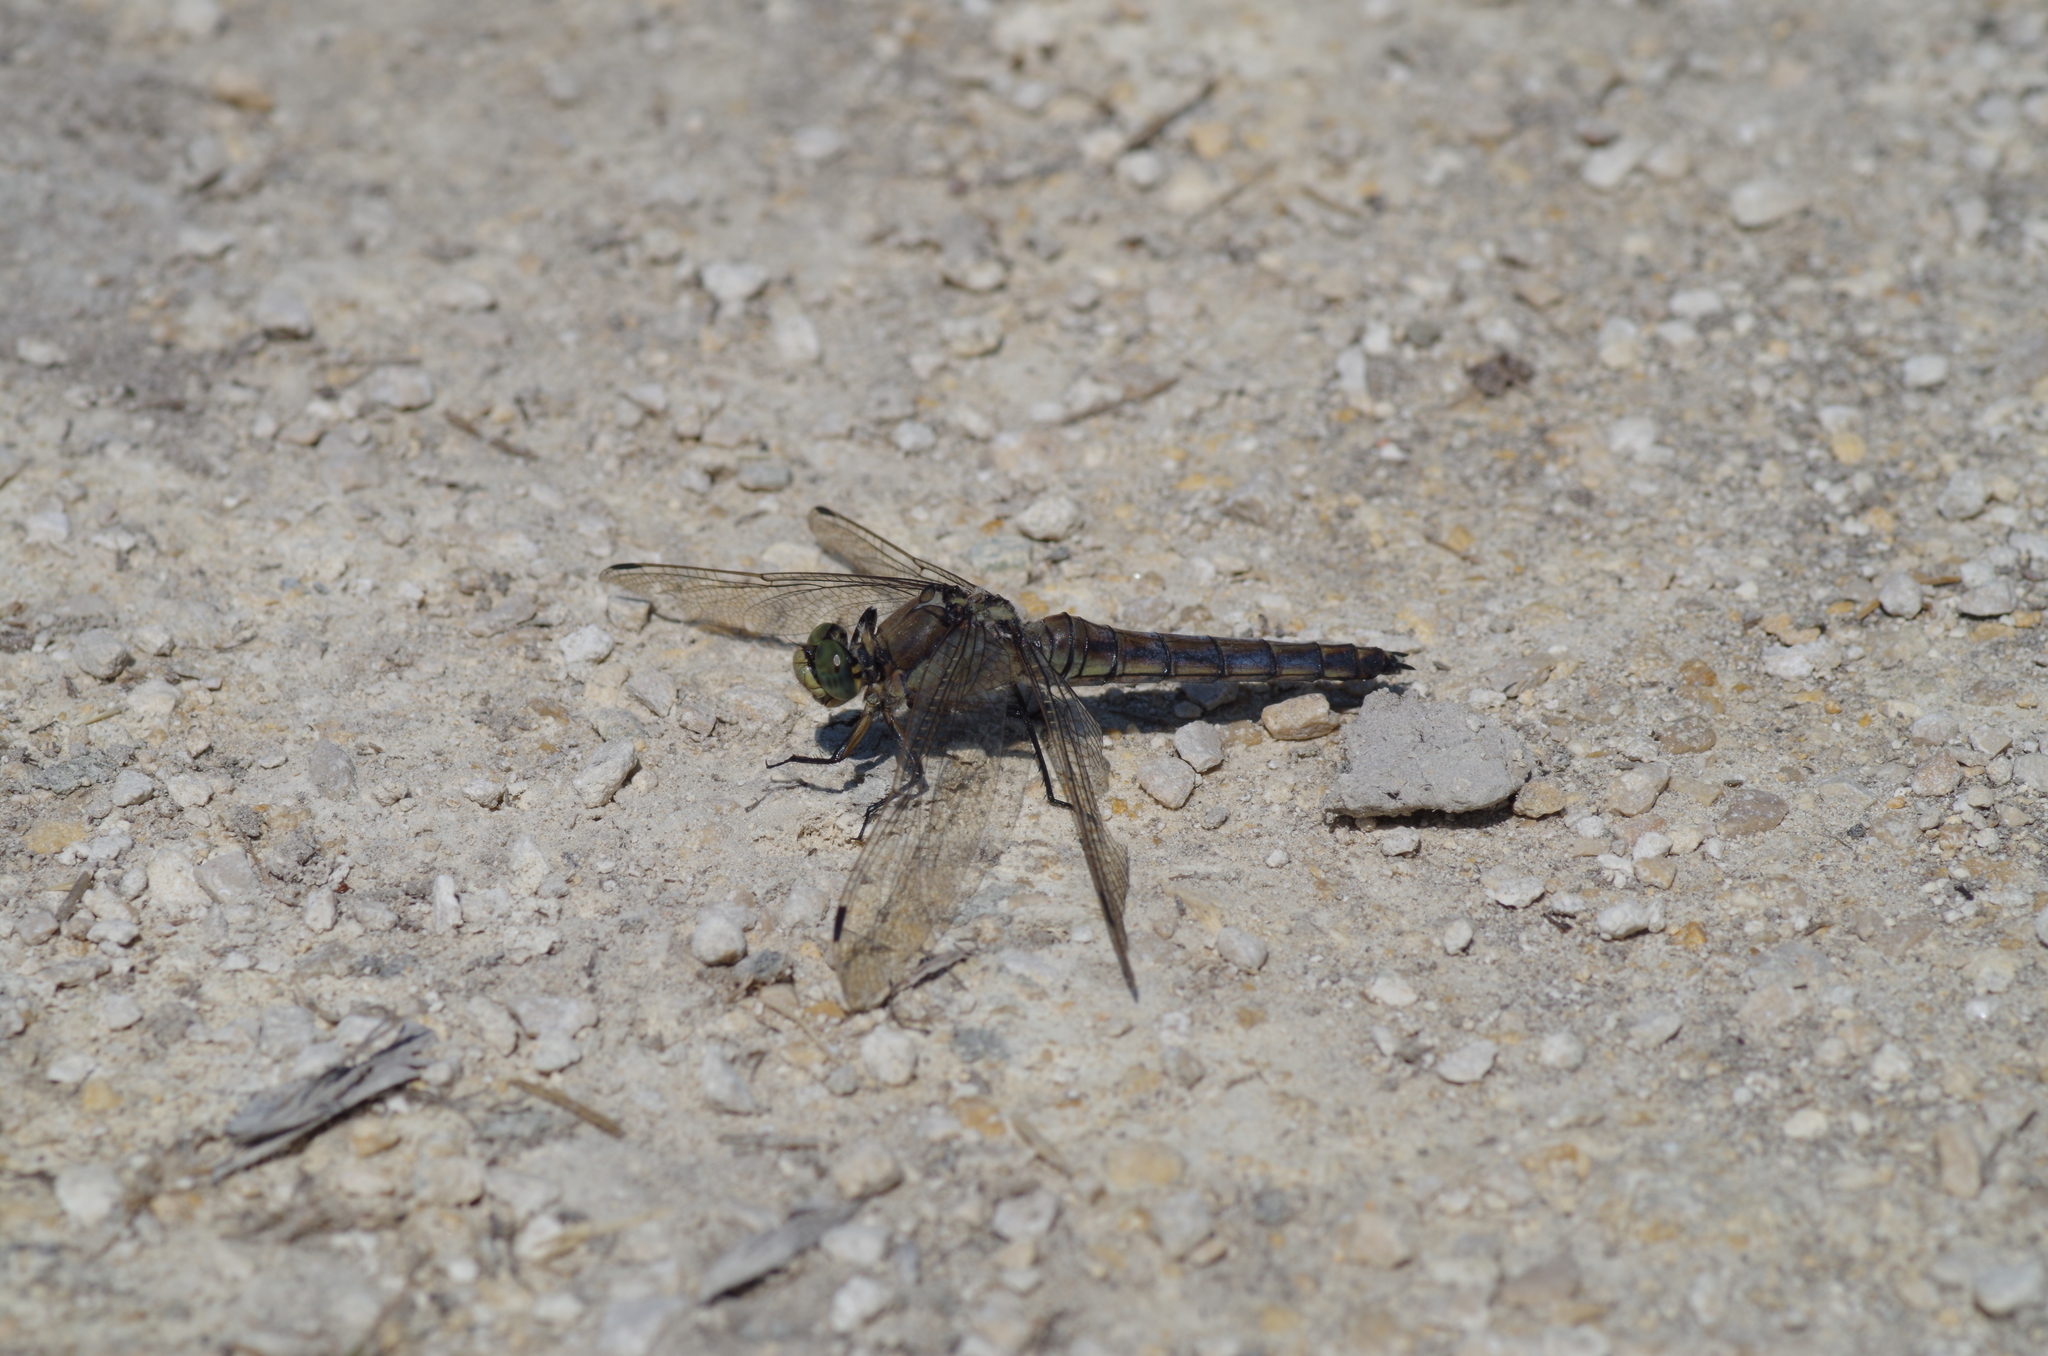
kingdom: Animalia
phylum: Arthropoda
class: Insecta
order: Odonata
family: Libellulidae
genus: Orthetrum
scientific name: Orthetrum cancellatum
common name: Black-tailed skimmer
